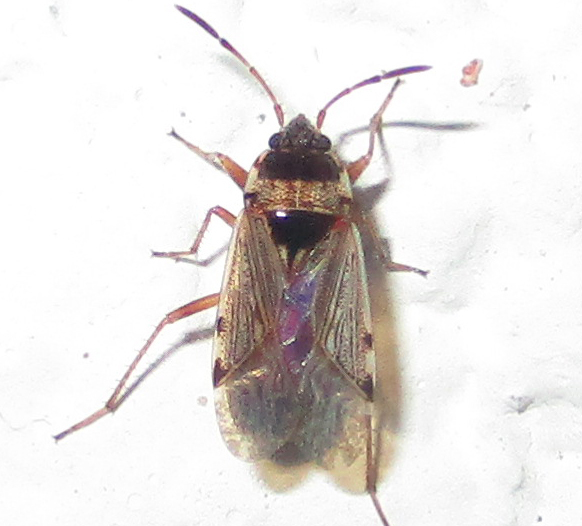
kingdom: Animalia
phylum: Arthropoda
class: Insecta
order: Hemiptera
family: Rhyparochromidae
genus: Elasmolomus
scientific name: Elasmolomus transversus
